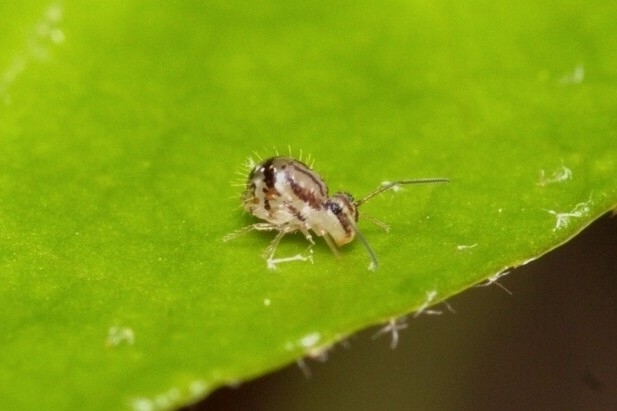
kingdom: Animalia
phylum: Arthropoda
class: Collembola
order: Symphypleona
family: Sminthuridae
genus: Sminthurus
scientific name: Sminthurus mencenbergae
